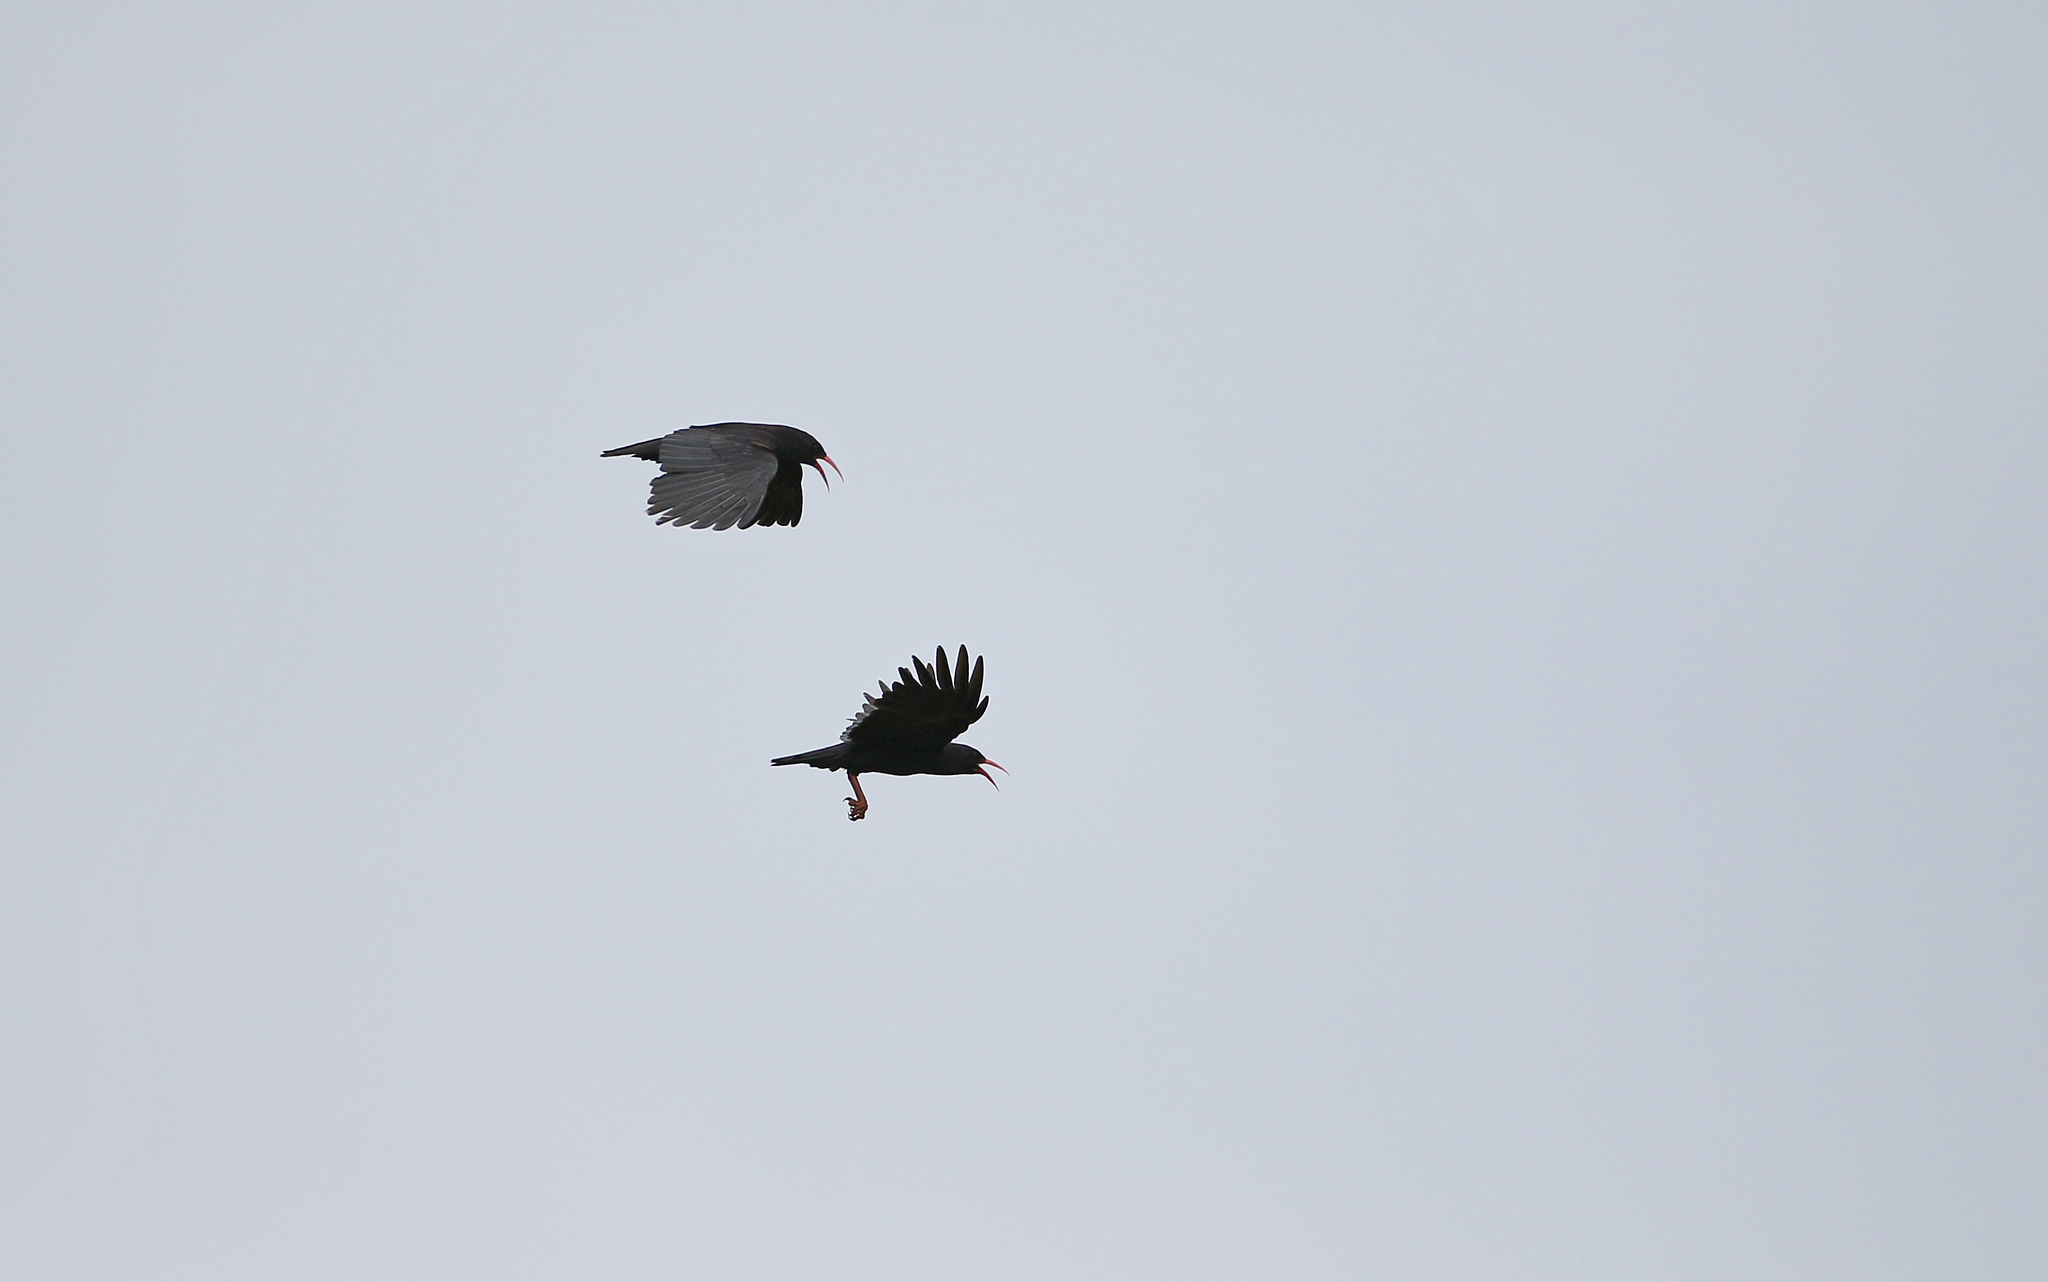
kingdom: Animalia
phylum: Chordata
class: Aves
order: Passeriformes
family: Corvidae
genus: Pyrrhocorax
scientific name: Pyrrhocorax pyrrhocorax
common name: Red-billed chough
